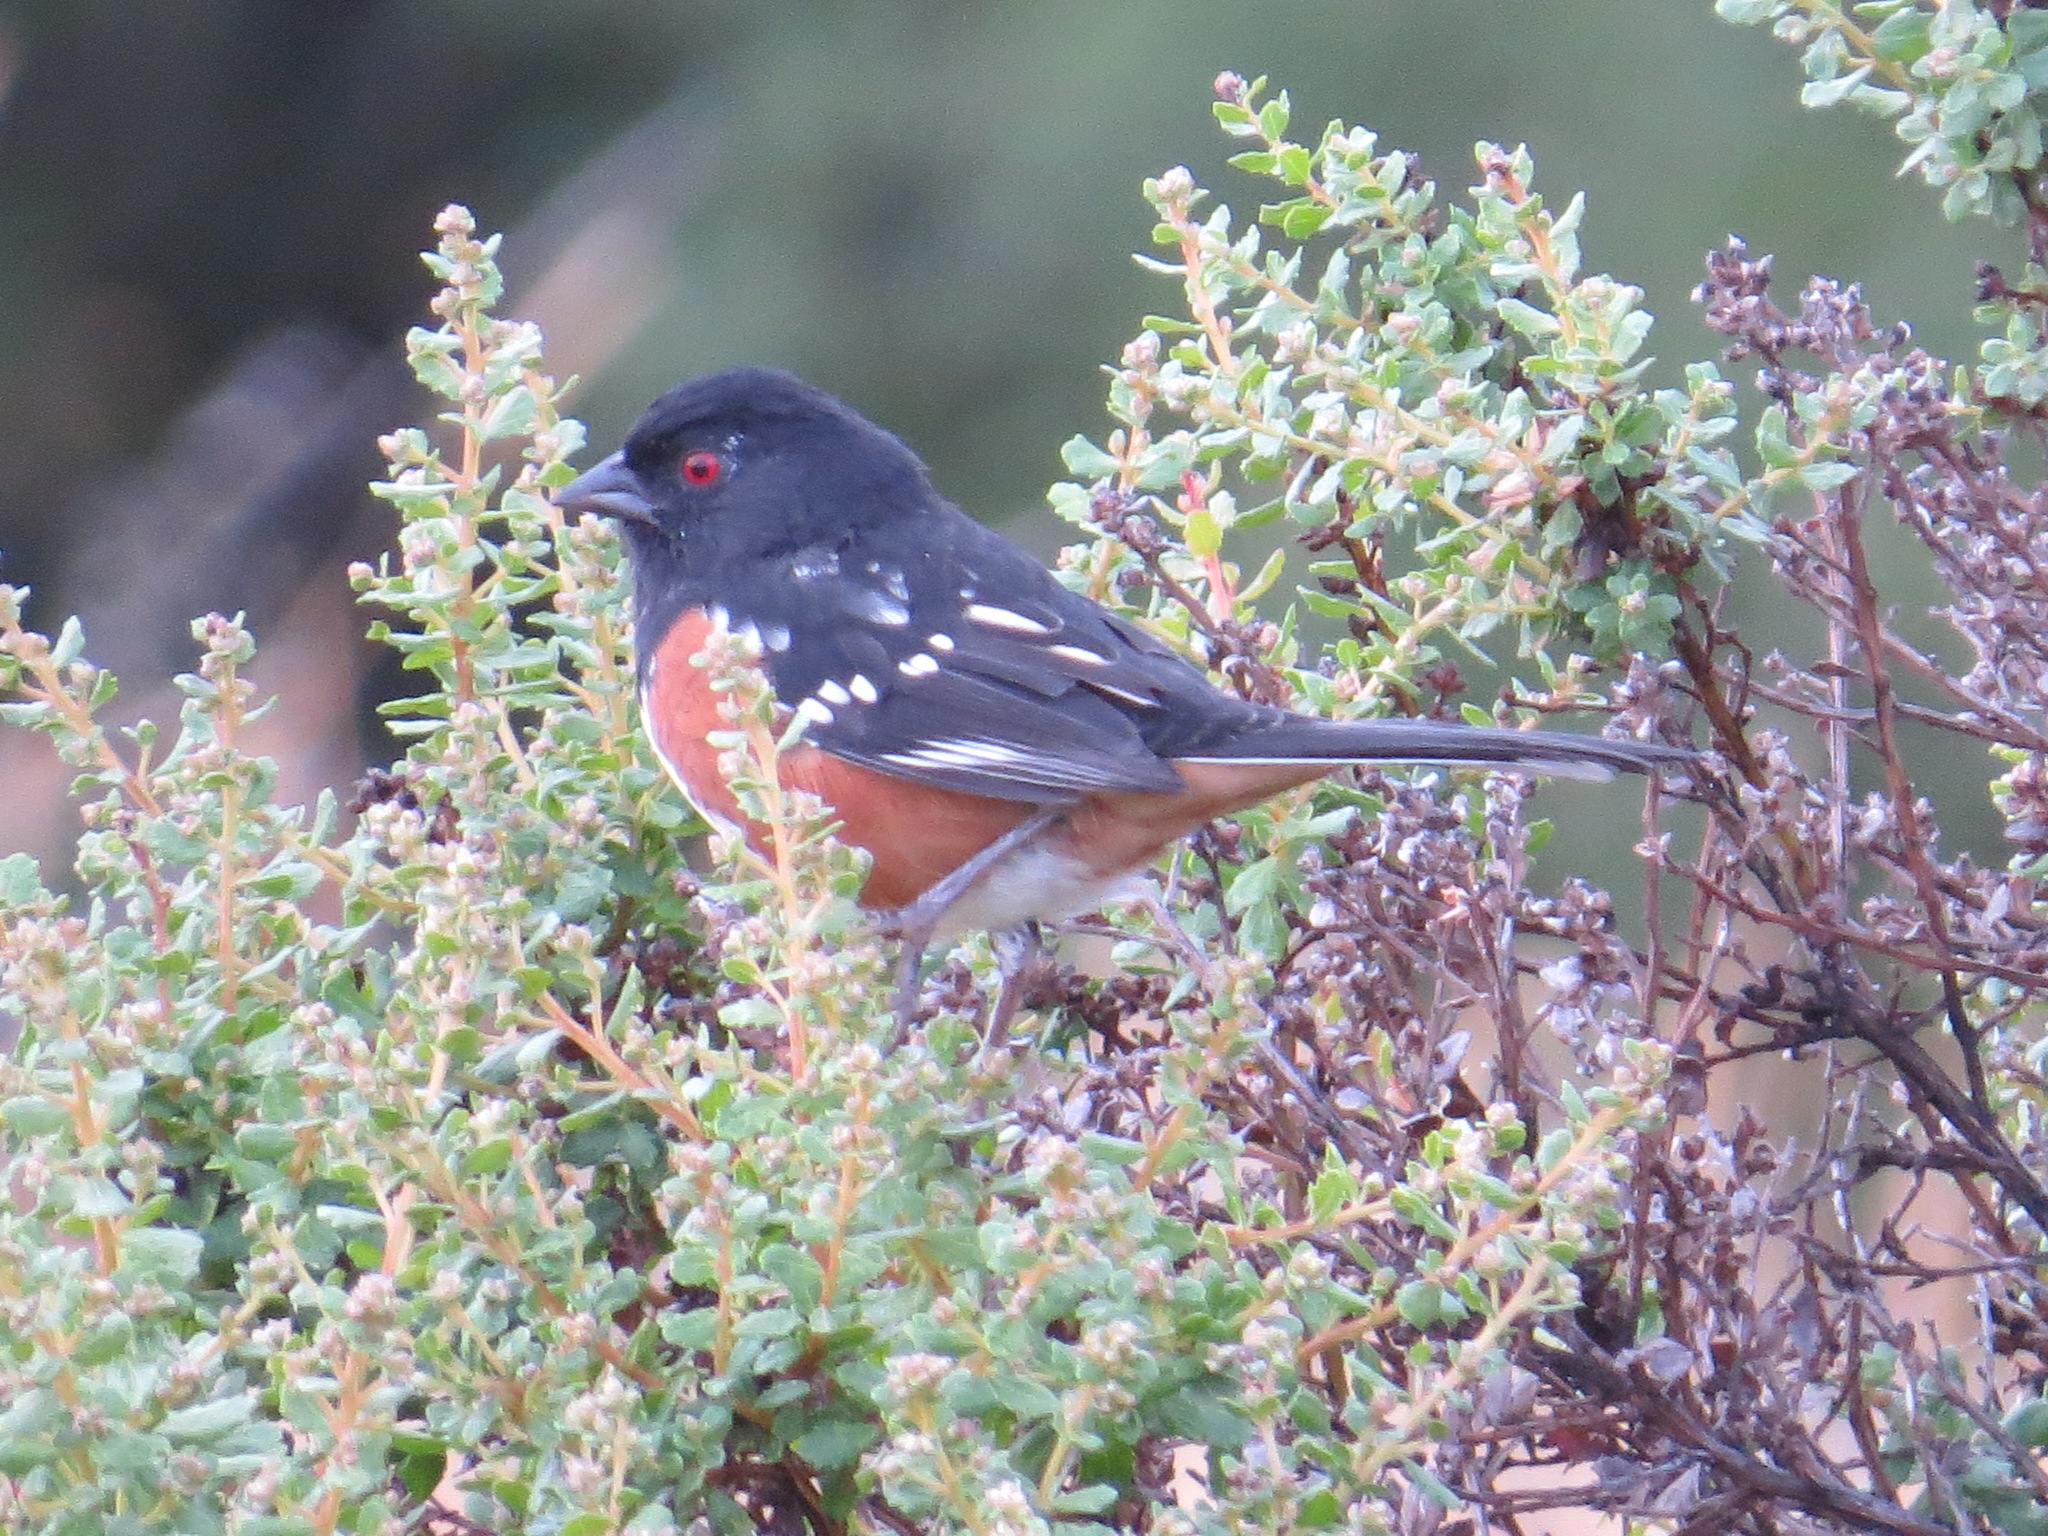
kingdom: Animalia
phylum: Chordata
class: Aves
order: Passeriformes
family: Passerellidae
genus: Pipilo
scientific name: Pipilo maculatus
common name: Spotted towhee
